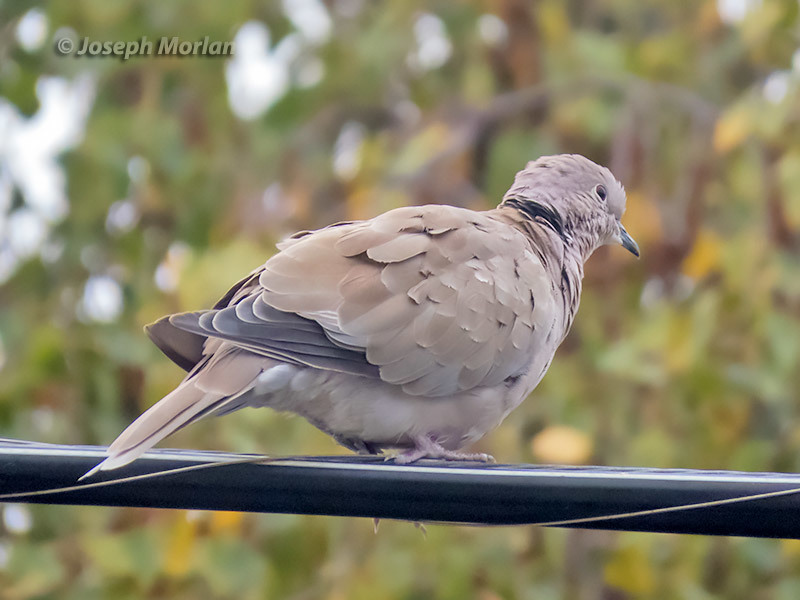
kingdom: Animalia
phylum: Chordata
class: Aves
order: Columbiformes
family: Columbidae
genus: Streptopelia
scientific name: Streptopelia decaocto
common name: Eurasian collared dove
